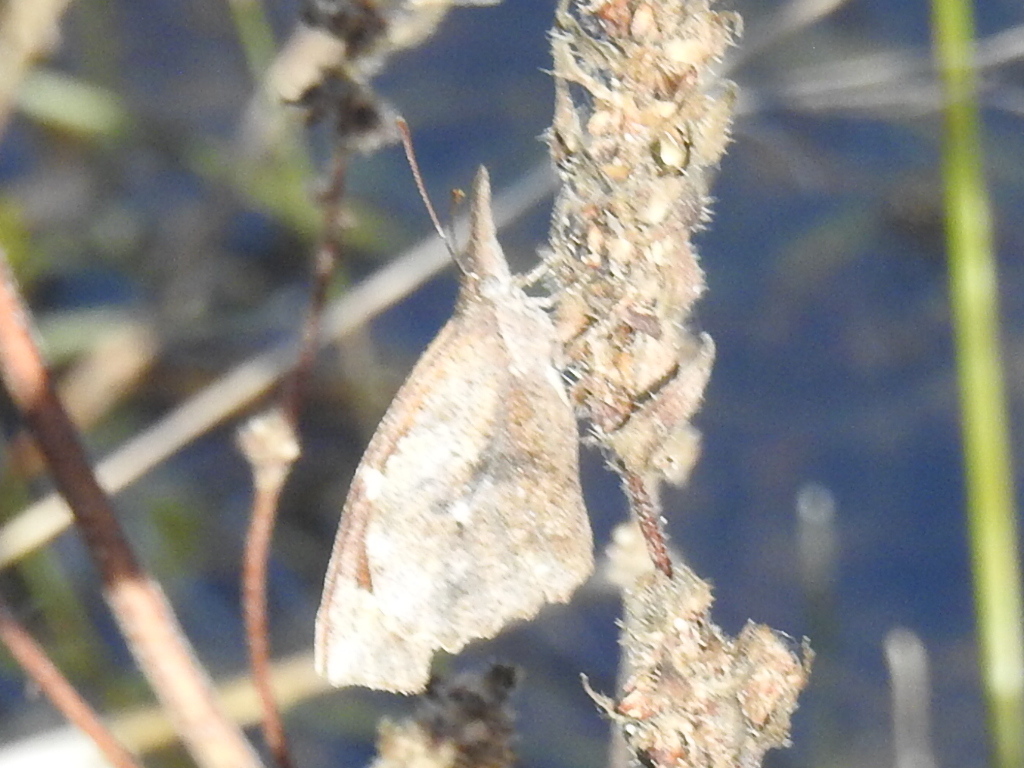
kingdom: Animalia
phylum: Arthropoda
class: Insecta
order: Lepidoptera
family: Nymphalidae
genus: Libytheana
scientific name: Libytheana carinenta
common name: American snout
